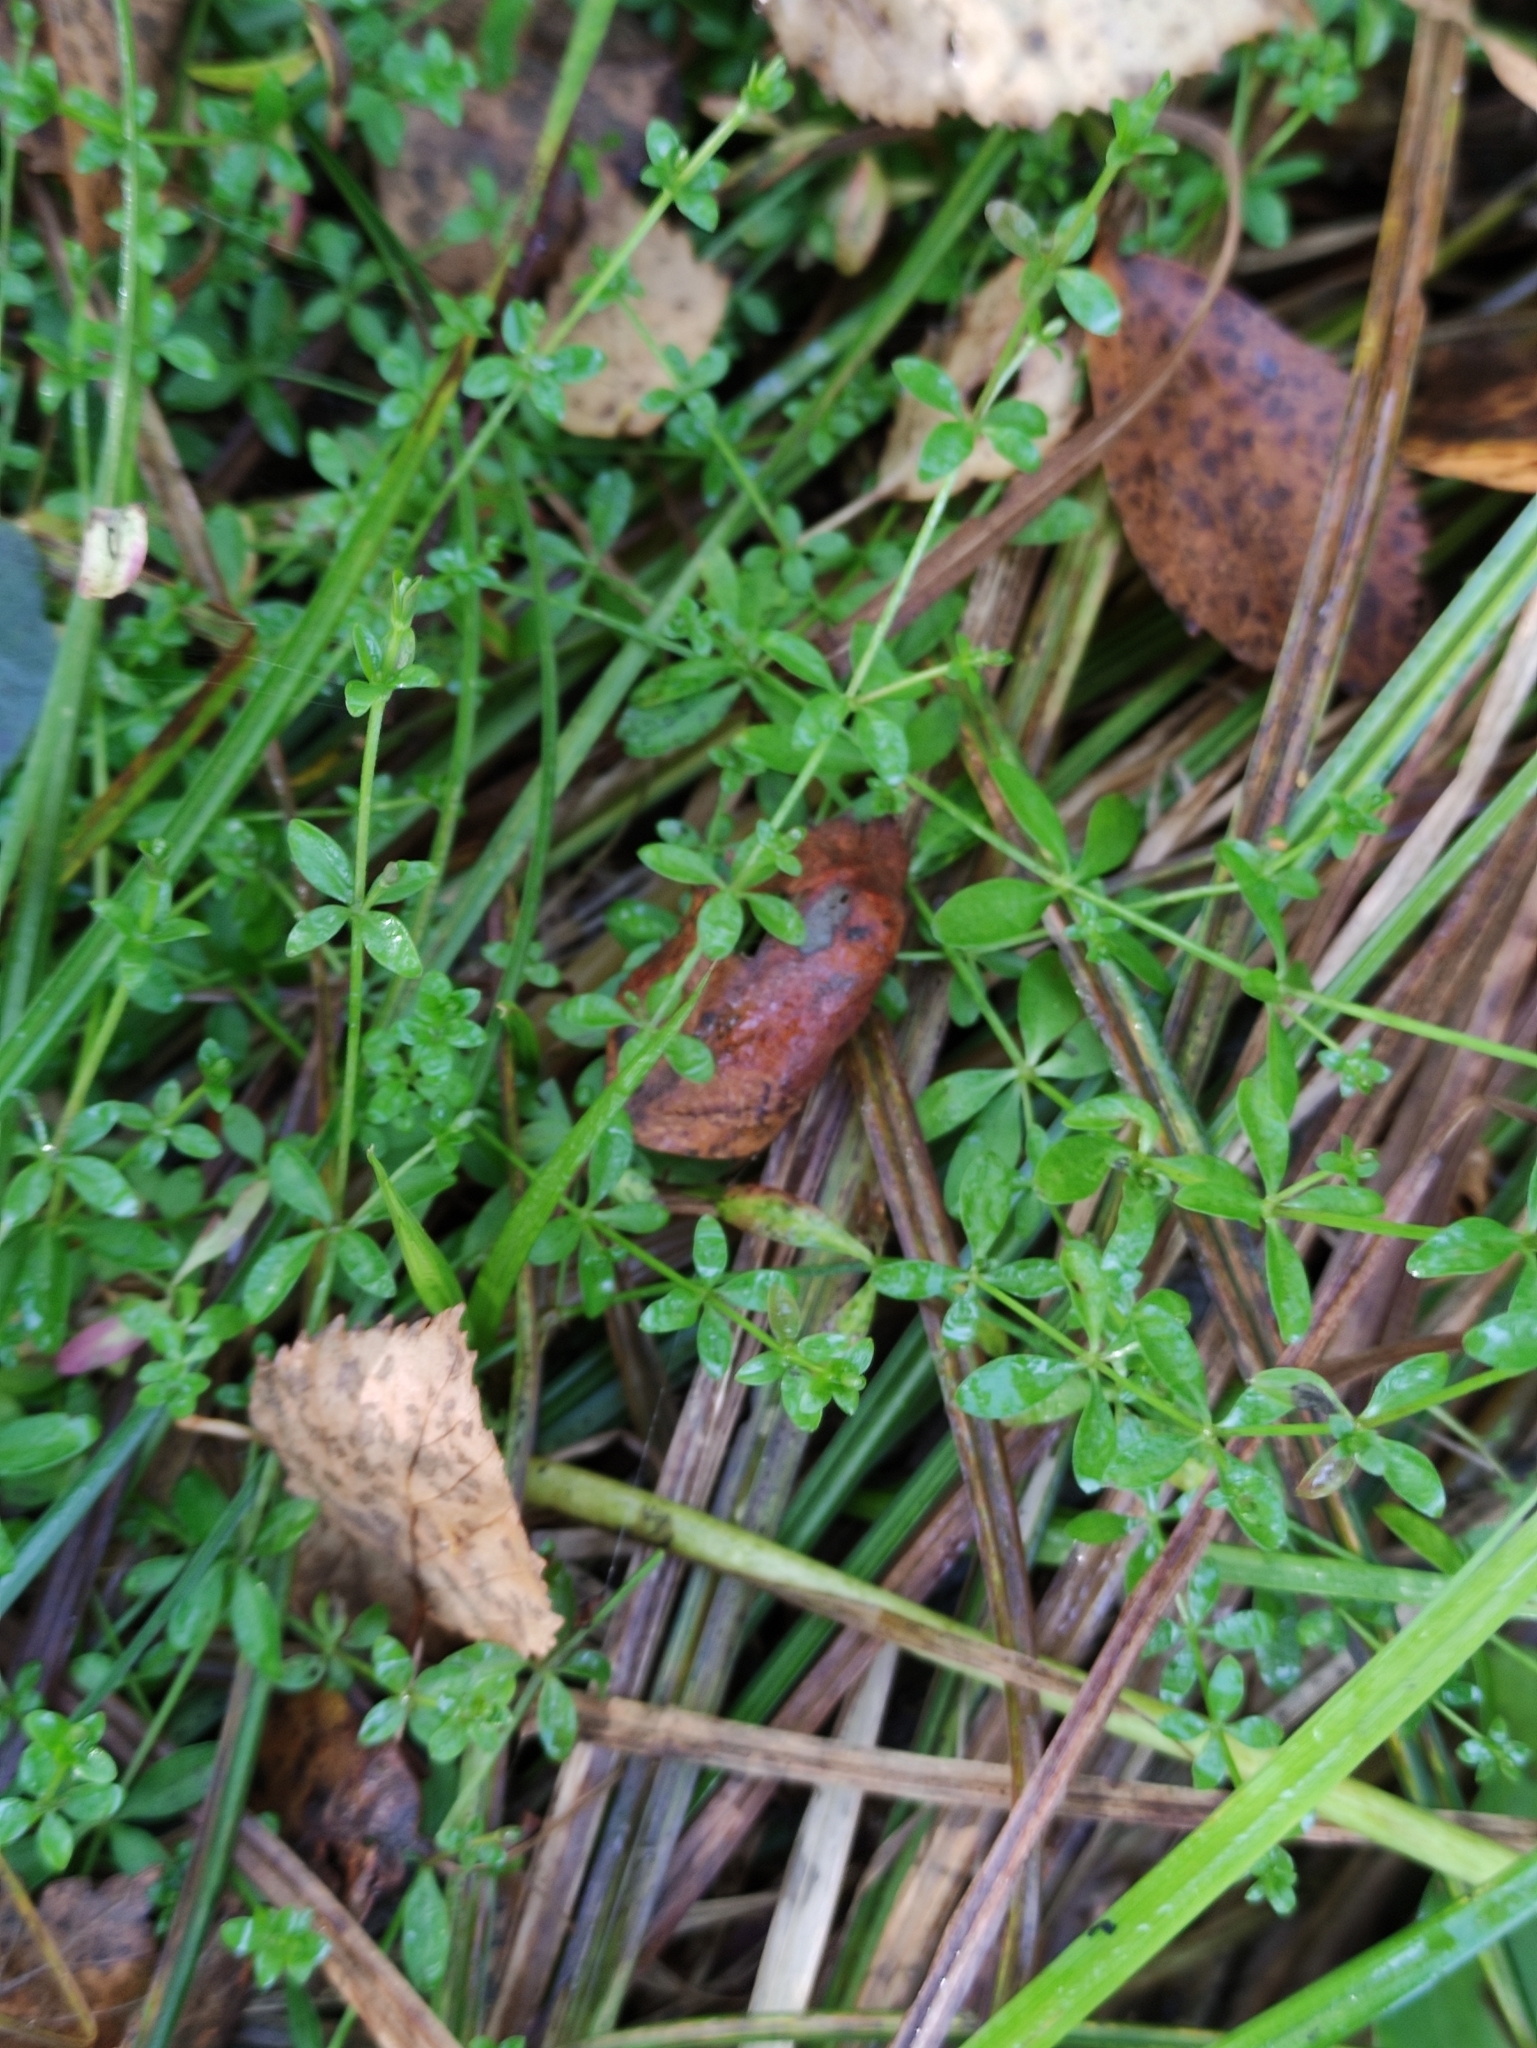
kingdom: Plantae
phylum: Tracheophyta
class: Magnoliopsida
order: Gentianales
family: Rubiaceae
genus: Galium
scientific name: Galium palustre
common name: Common marsh-bedstraw
